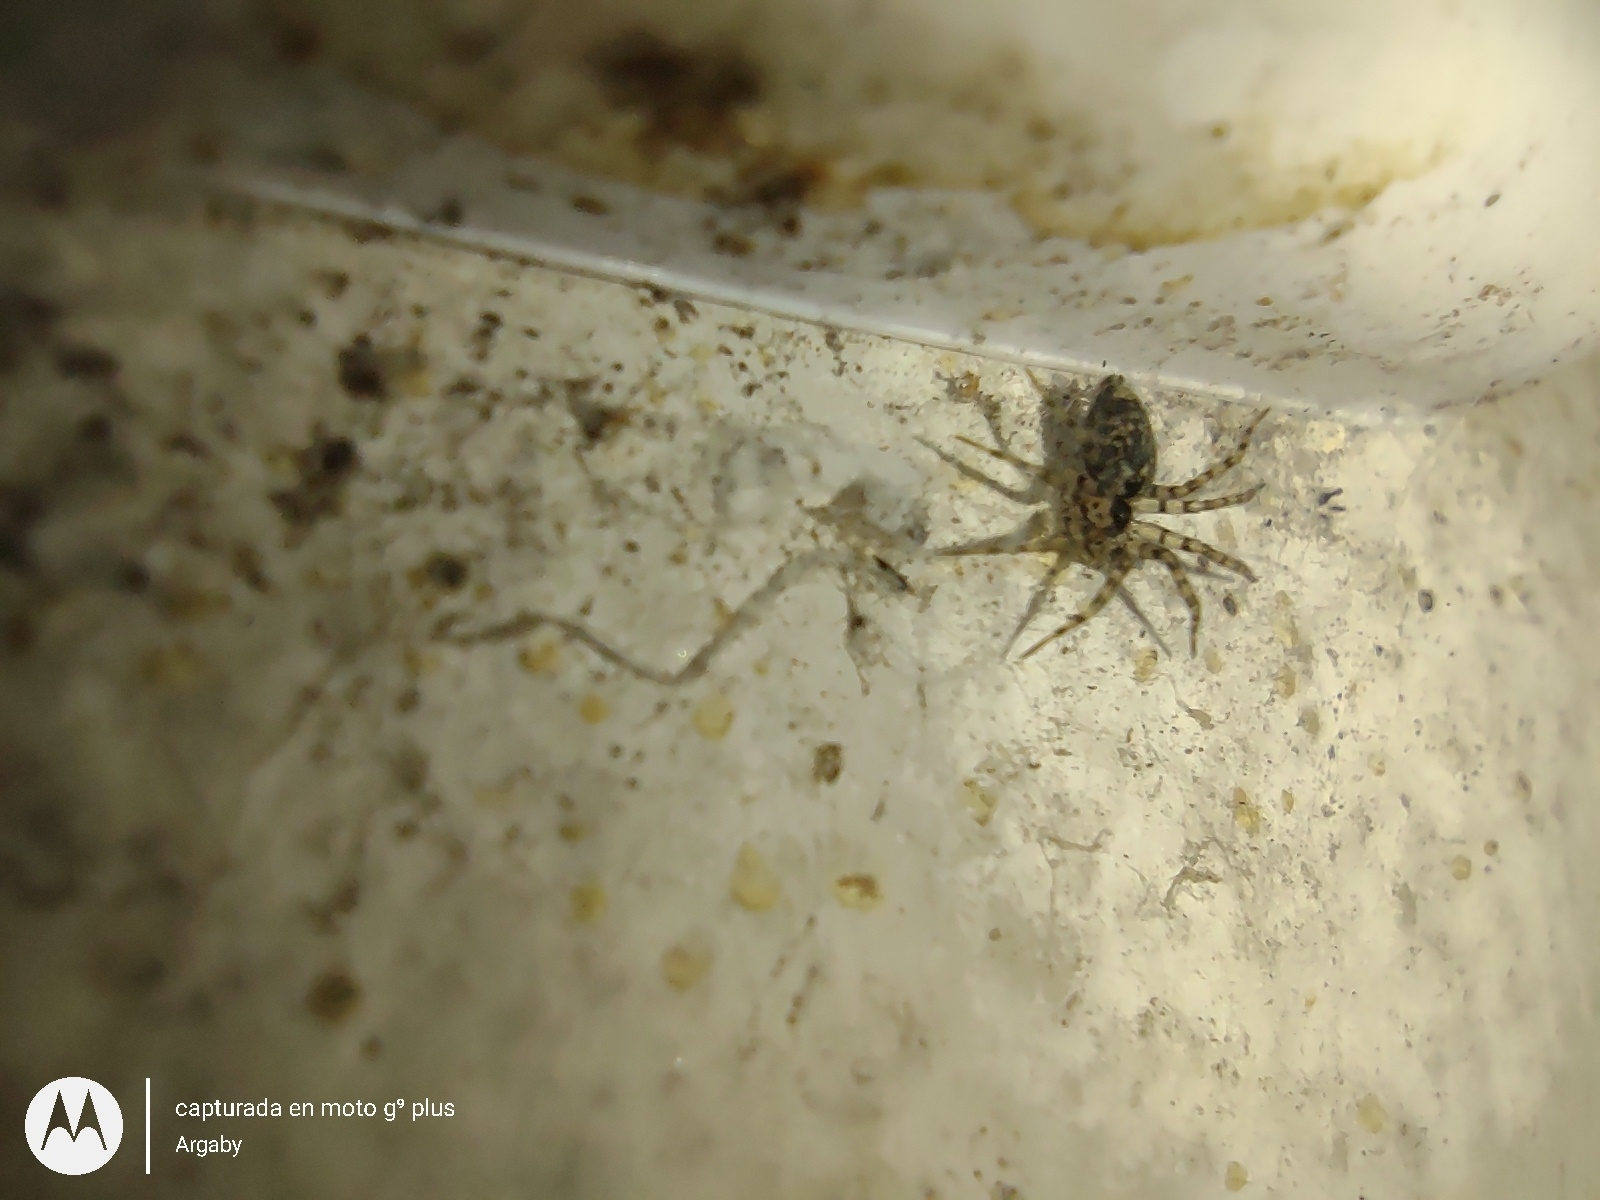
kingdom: Animalia
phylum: Arthropoda
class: Arachnida
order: Araneae
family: Oecobiidae
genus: Oecobius
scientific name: Oecobius navus
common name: Flatmesh weaver
